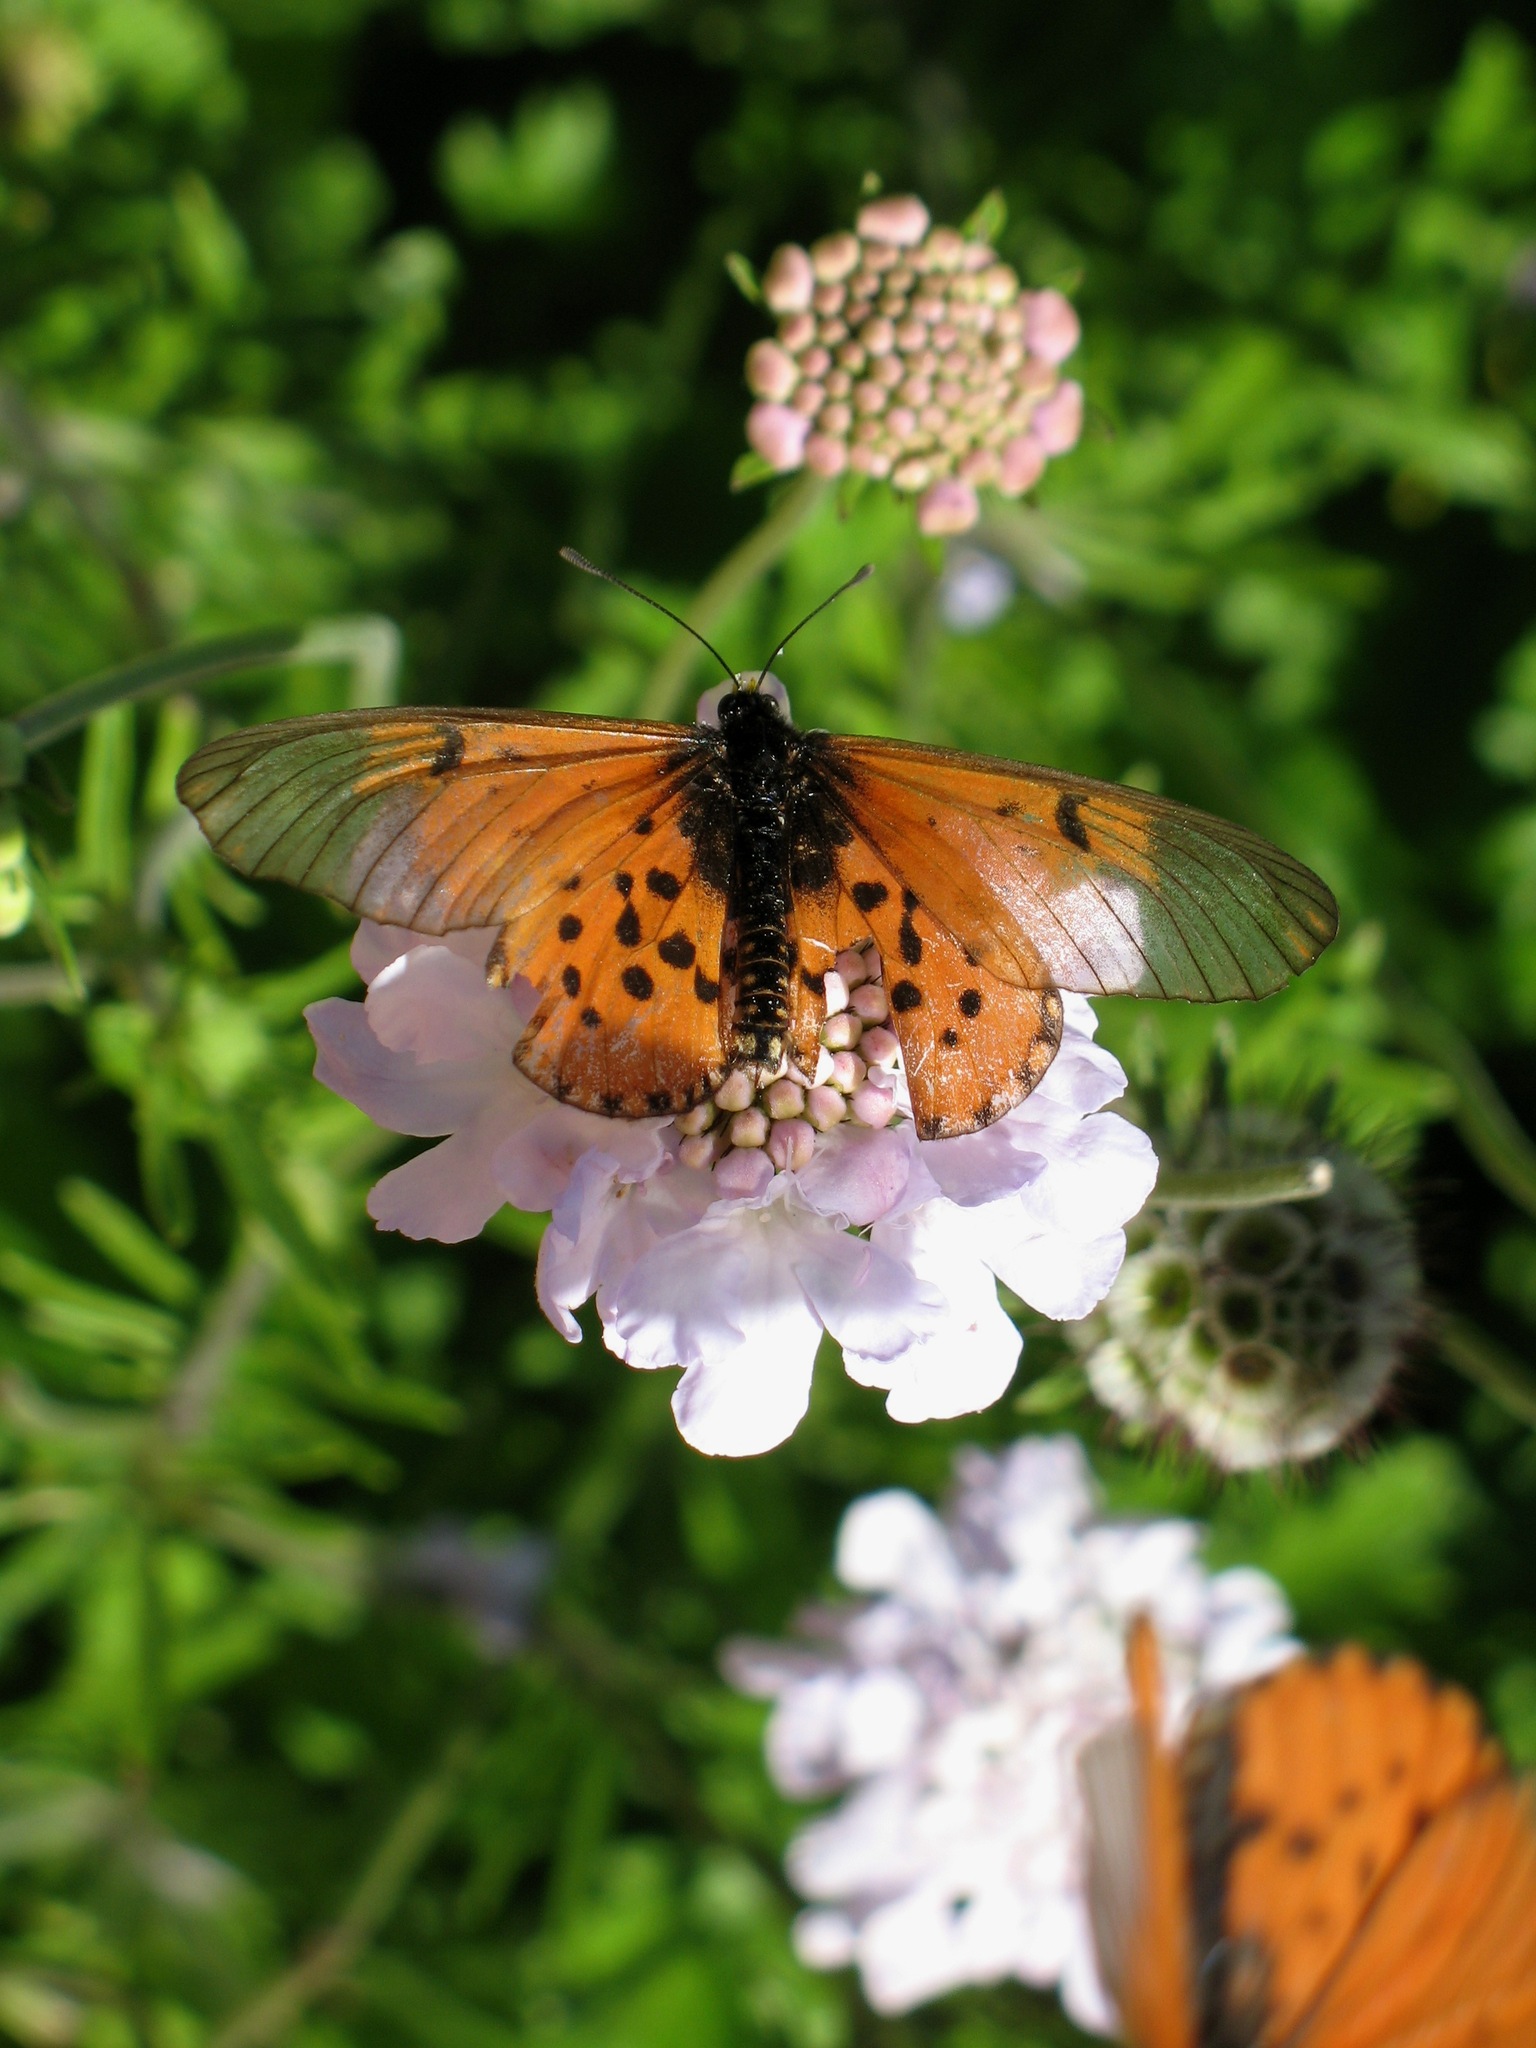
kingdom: Animalia
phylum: Arthropoda
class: Insecta
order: Lepidoptera
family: Nymphalidae
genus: Acraea
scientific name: Acraea horta
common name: Garden acraea
